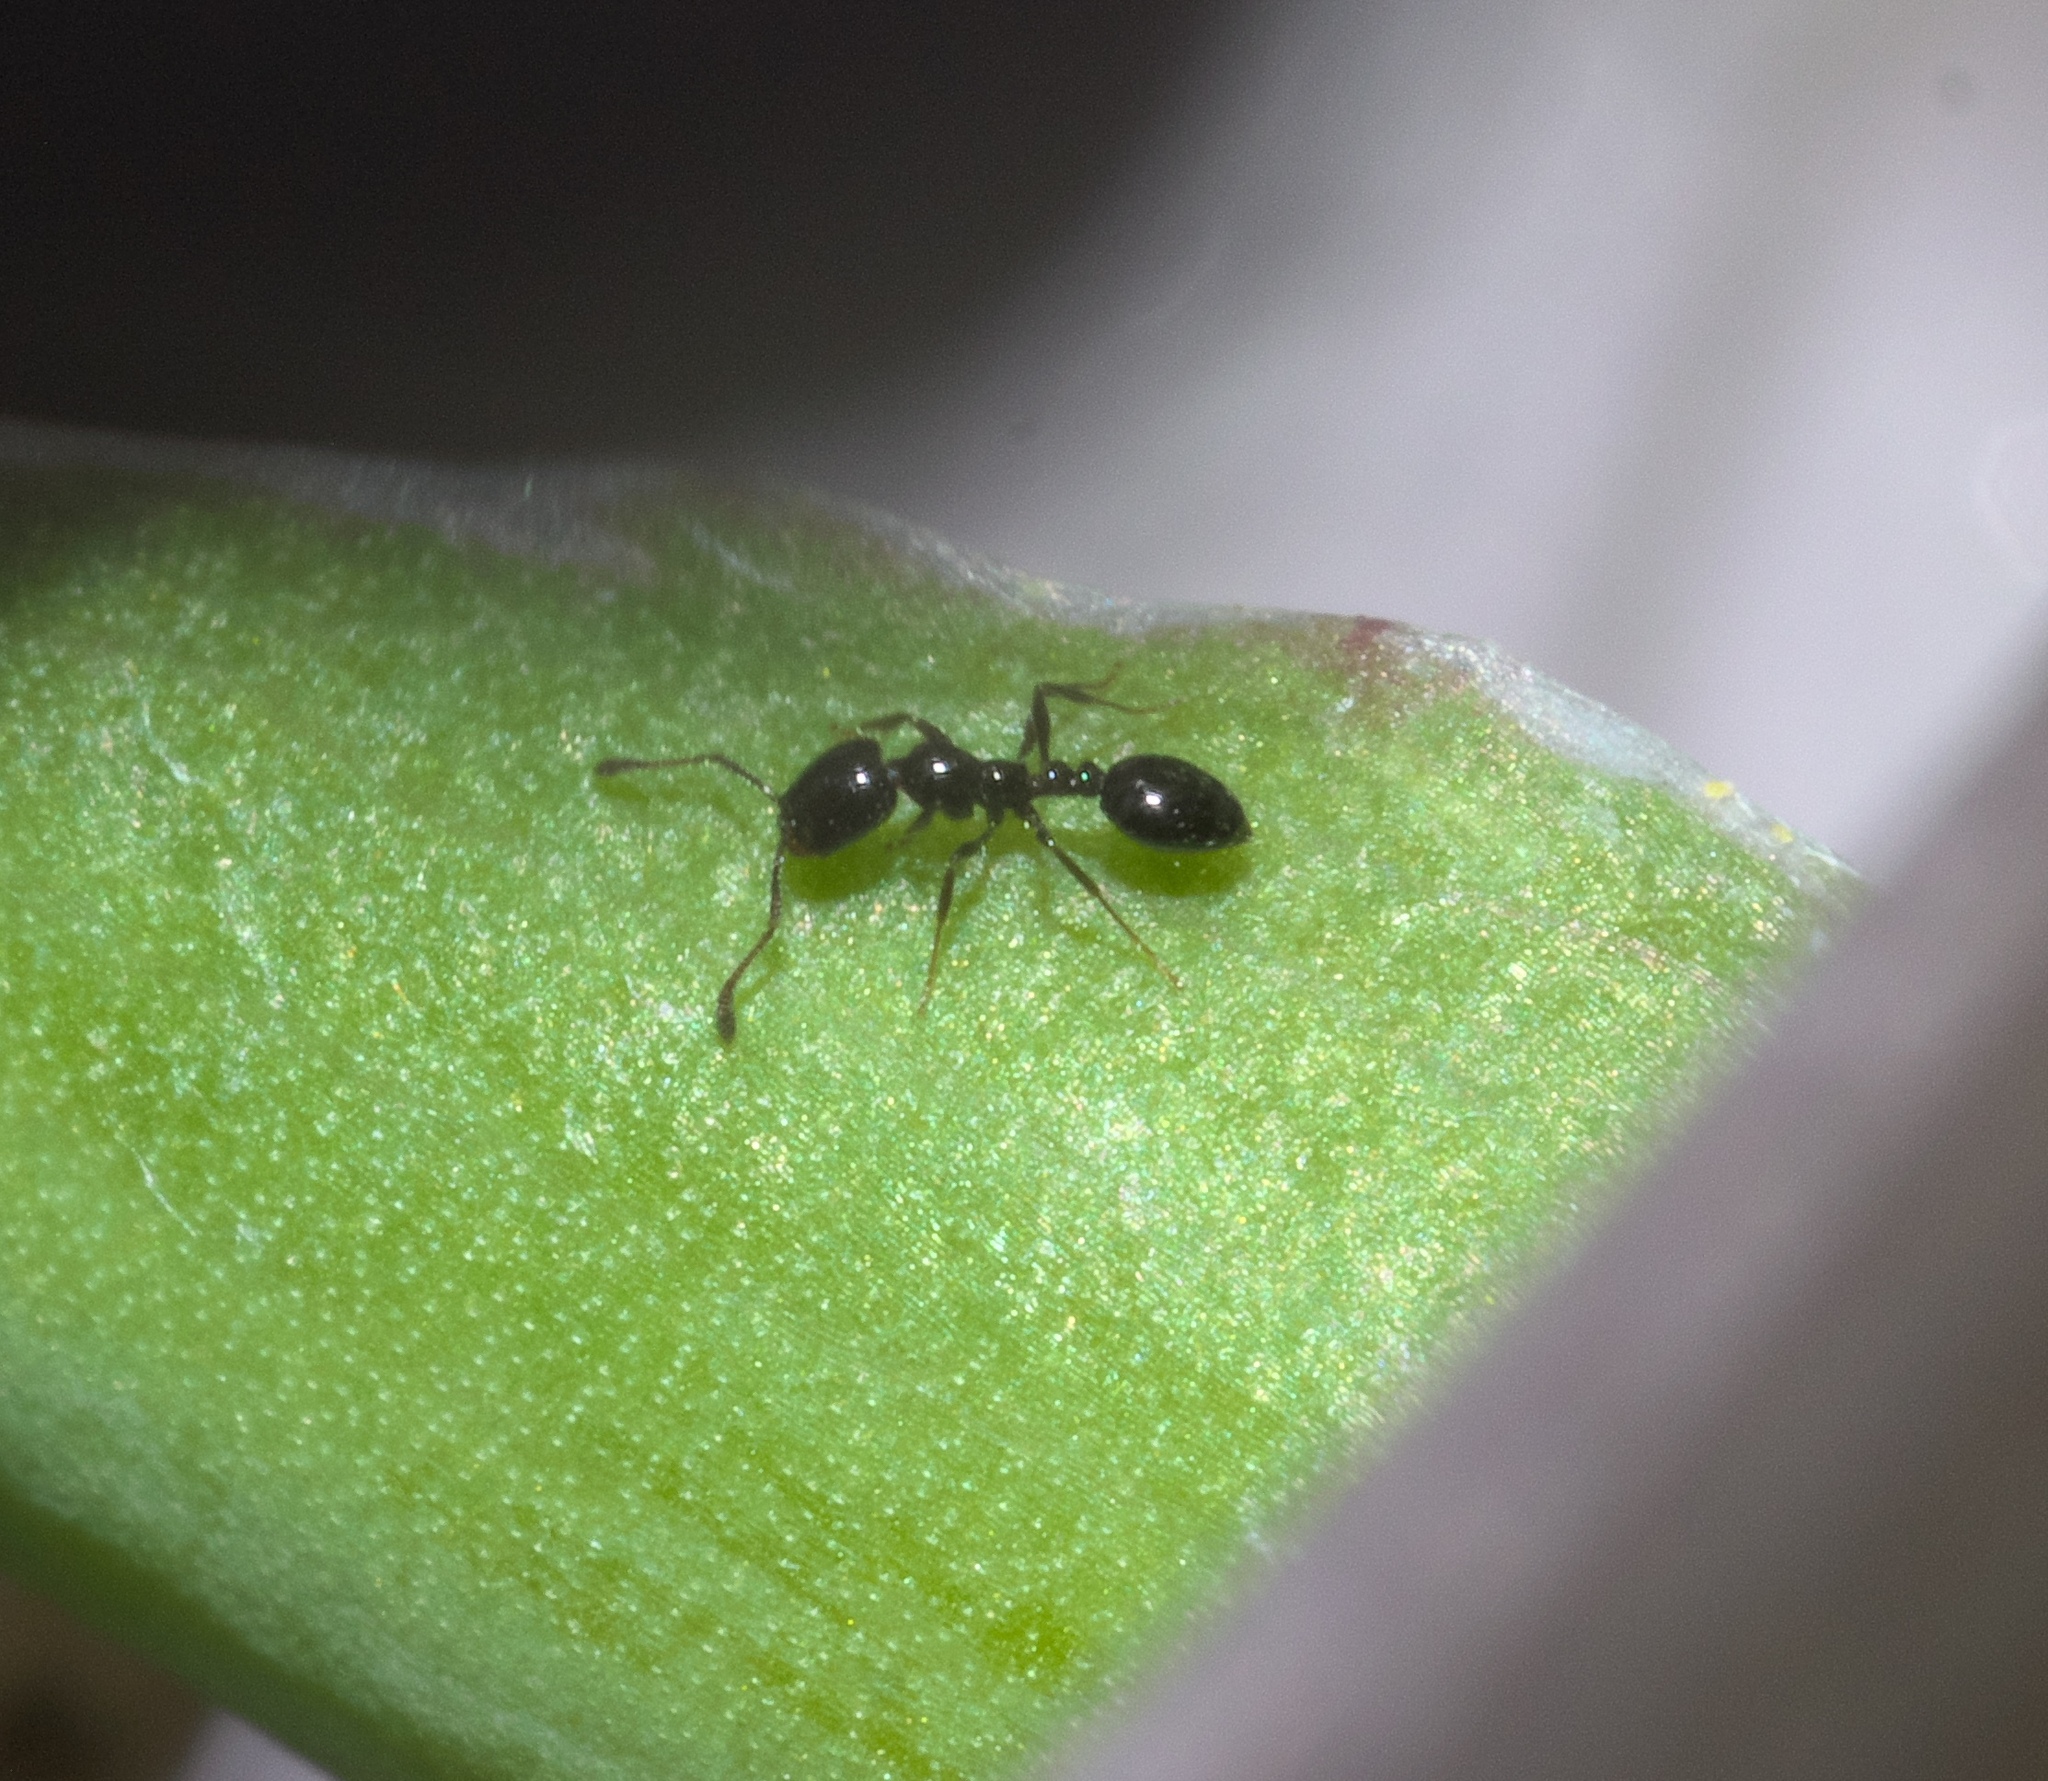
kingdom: Animalia
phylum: Arthropoda
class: Insecta
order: Hymenoptera
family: Formicidae
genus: Monomorium
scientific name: Monomorium minimum
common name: Little black ant
